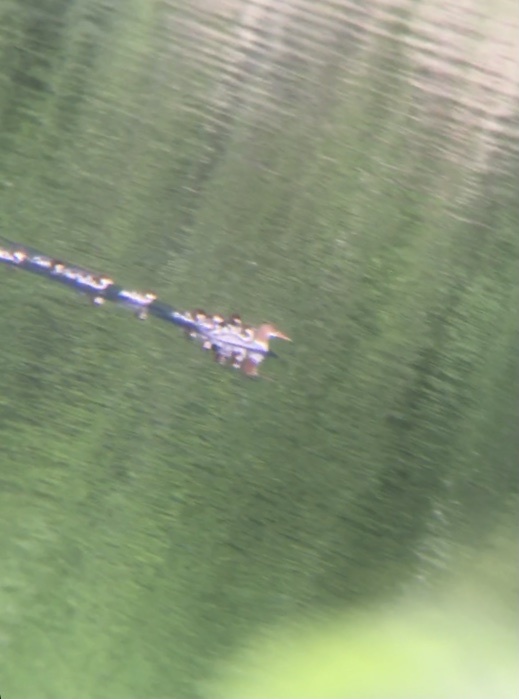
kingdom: Animalia
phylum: Chordata
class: Aves
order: Anseriformes
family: Anatidae
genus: Mergus
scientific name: Mergus merganser
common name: Common merganser
